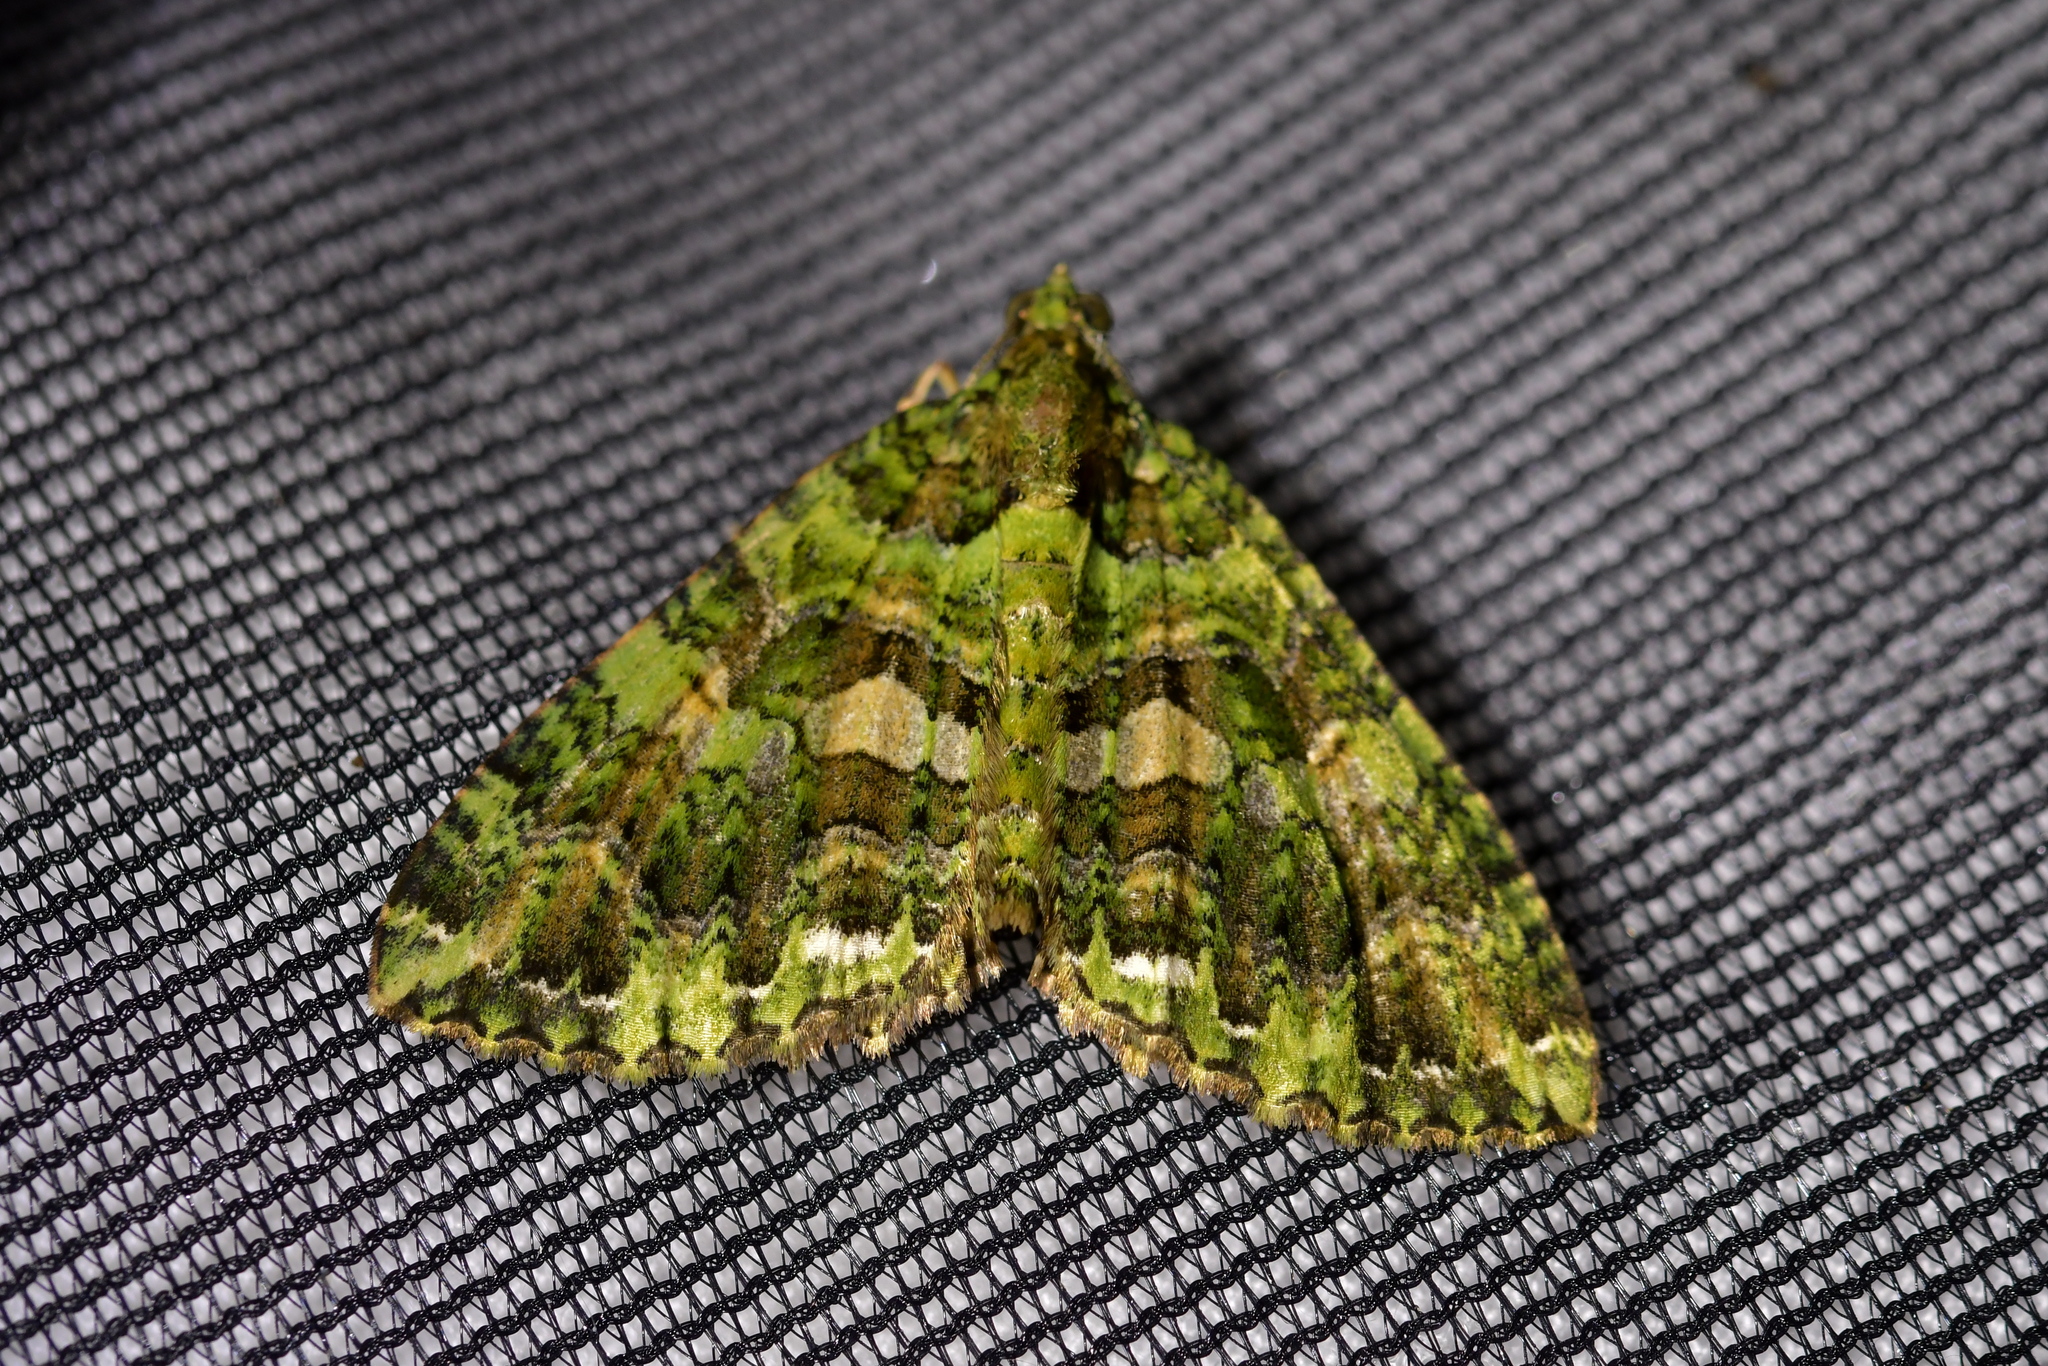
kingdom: Animalia
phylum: Arthropoda
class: Insecta
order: Lepidoptera
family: Geometridae
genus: Austrocidaria
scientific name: Austrocidaria similata
